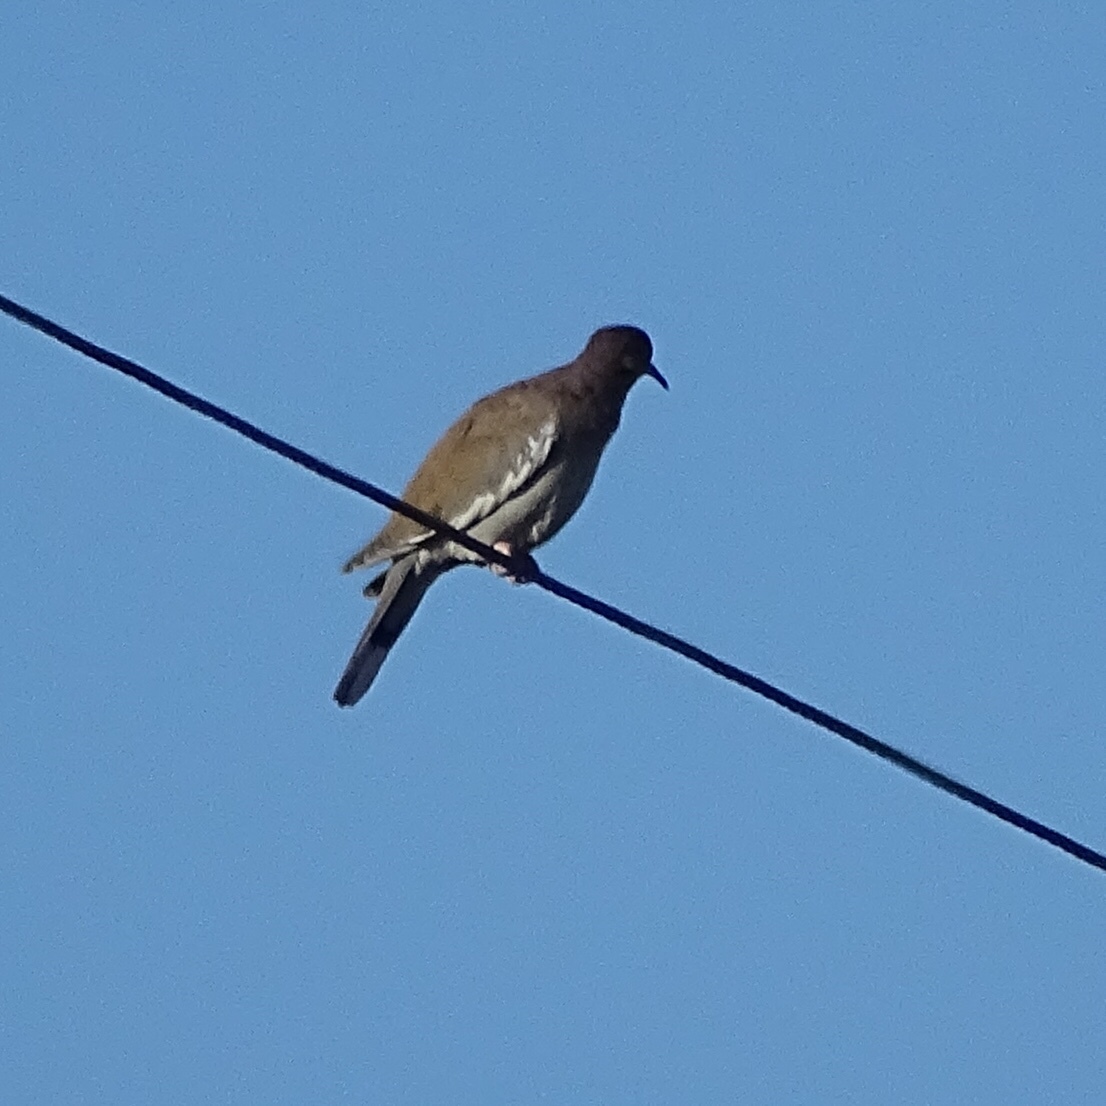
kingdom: Animalia
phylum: Chordata
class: Aves
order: Columbiformes
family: Columbidae
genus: Zenaida
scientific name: Zenaida asiatica
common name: White-winged dove
